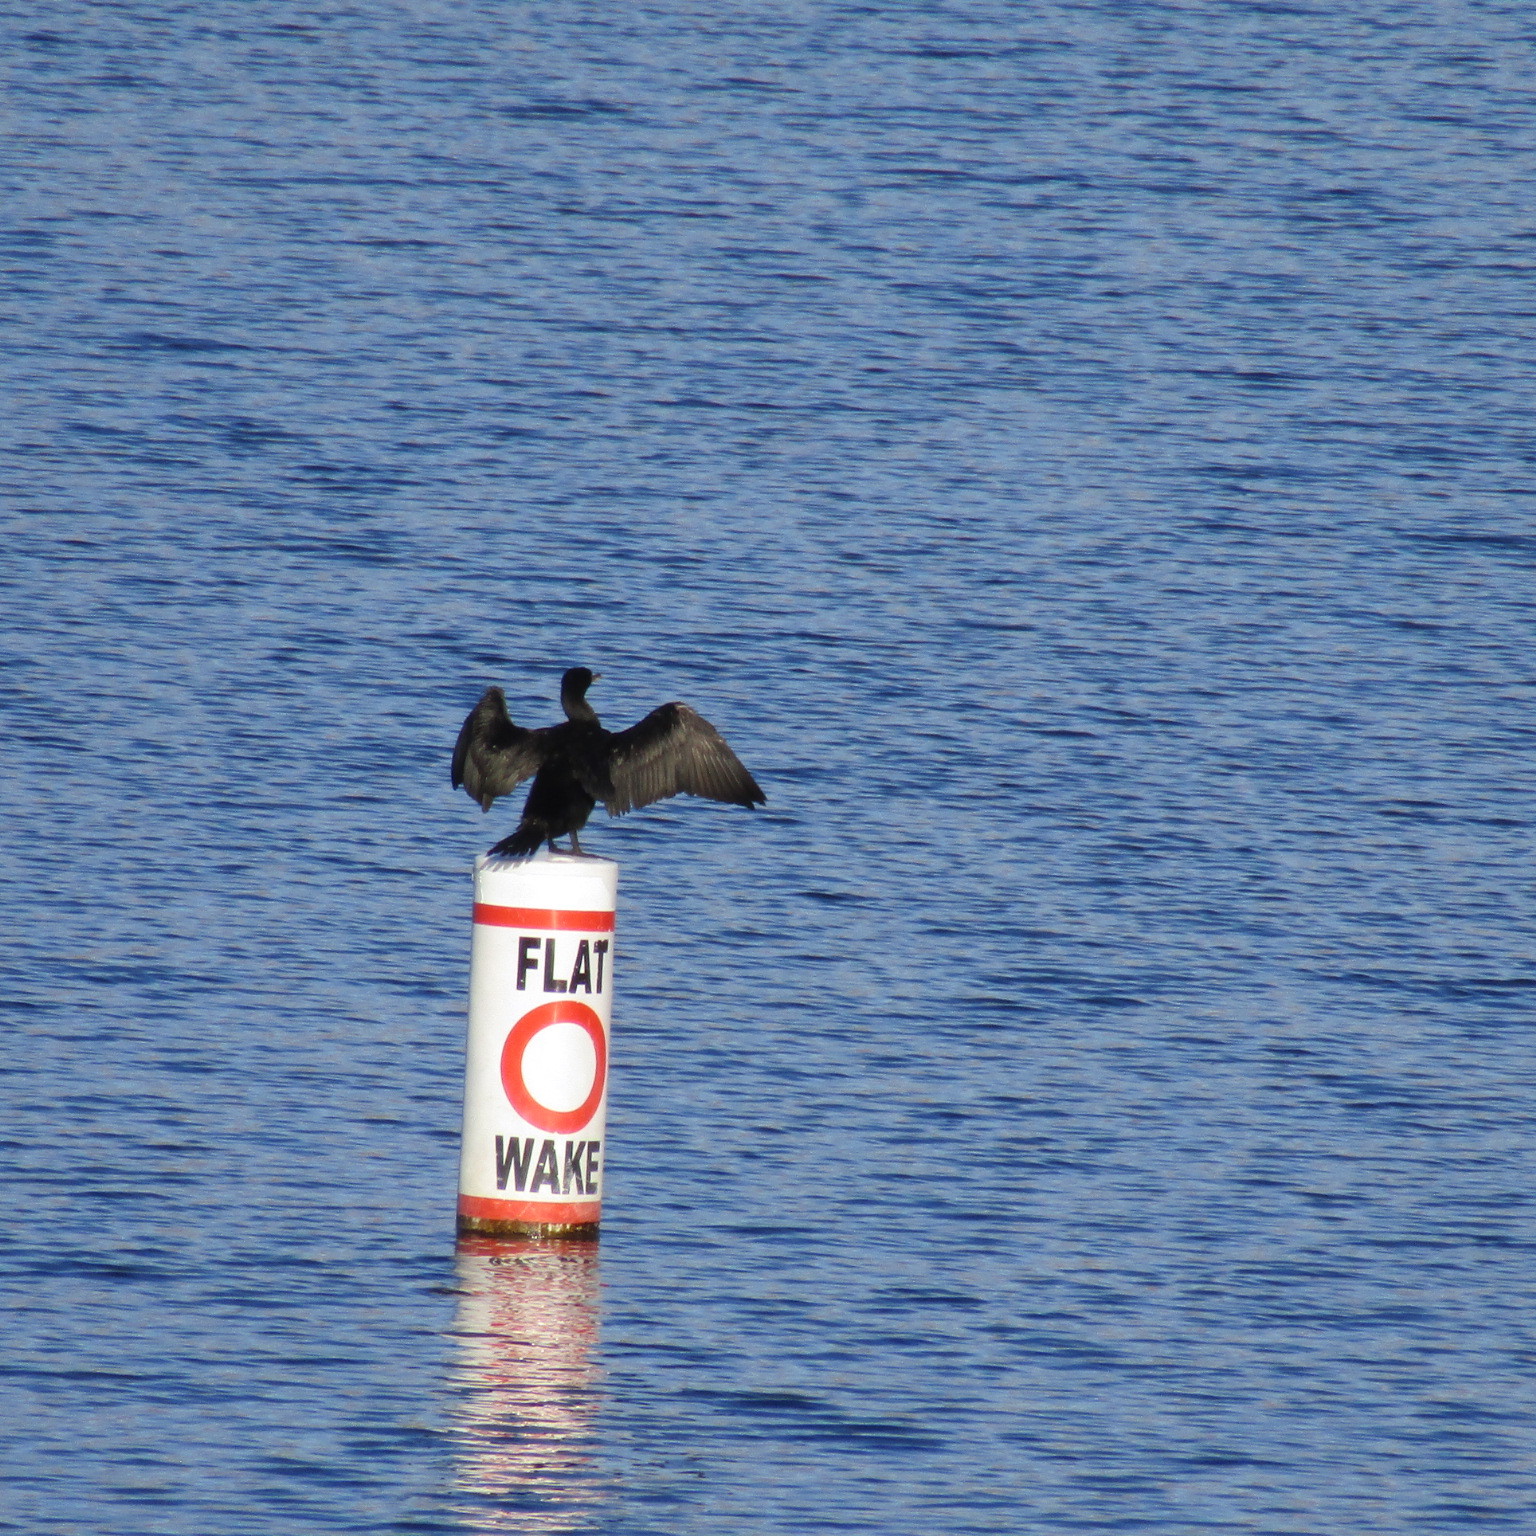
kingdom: Animalia
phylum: Chordata
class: Aves
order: Suliformes
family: Phalacrocoracidae
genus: Phalacrocorax
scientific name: Phalacrocorax auritus
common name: Double-crested cormorant
